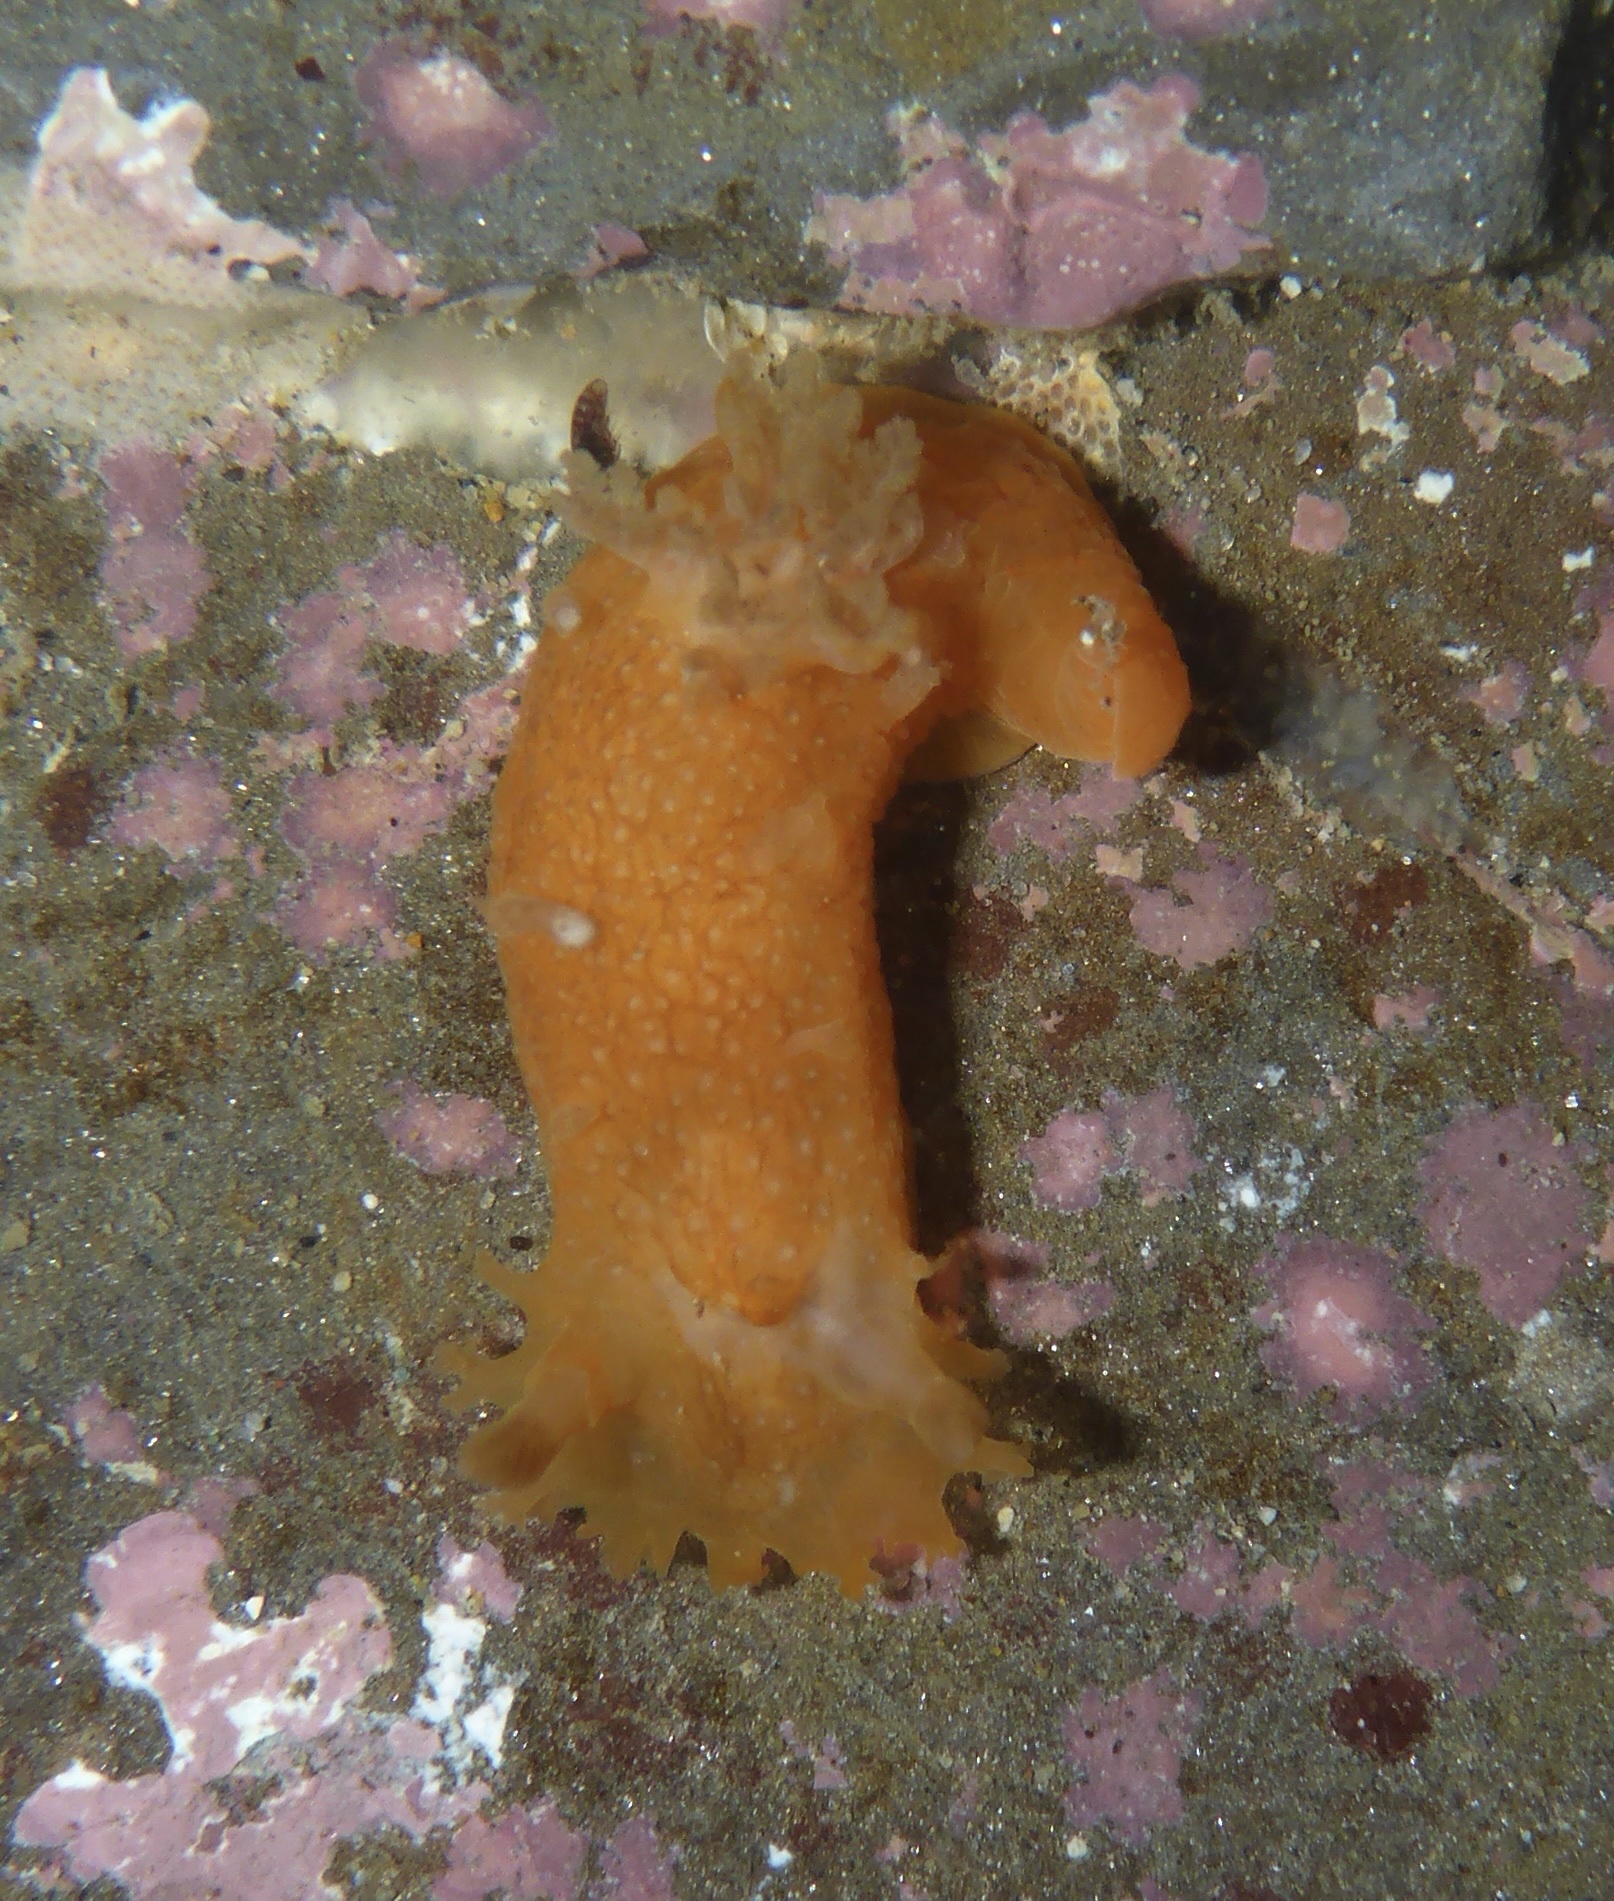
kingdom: Animalia
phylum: Mollusca
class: Gastropoda
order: Nudibranchia
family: Polyceridae
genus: Triopha
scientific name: Triopha maculata
